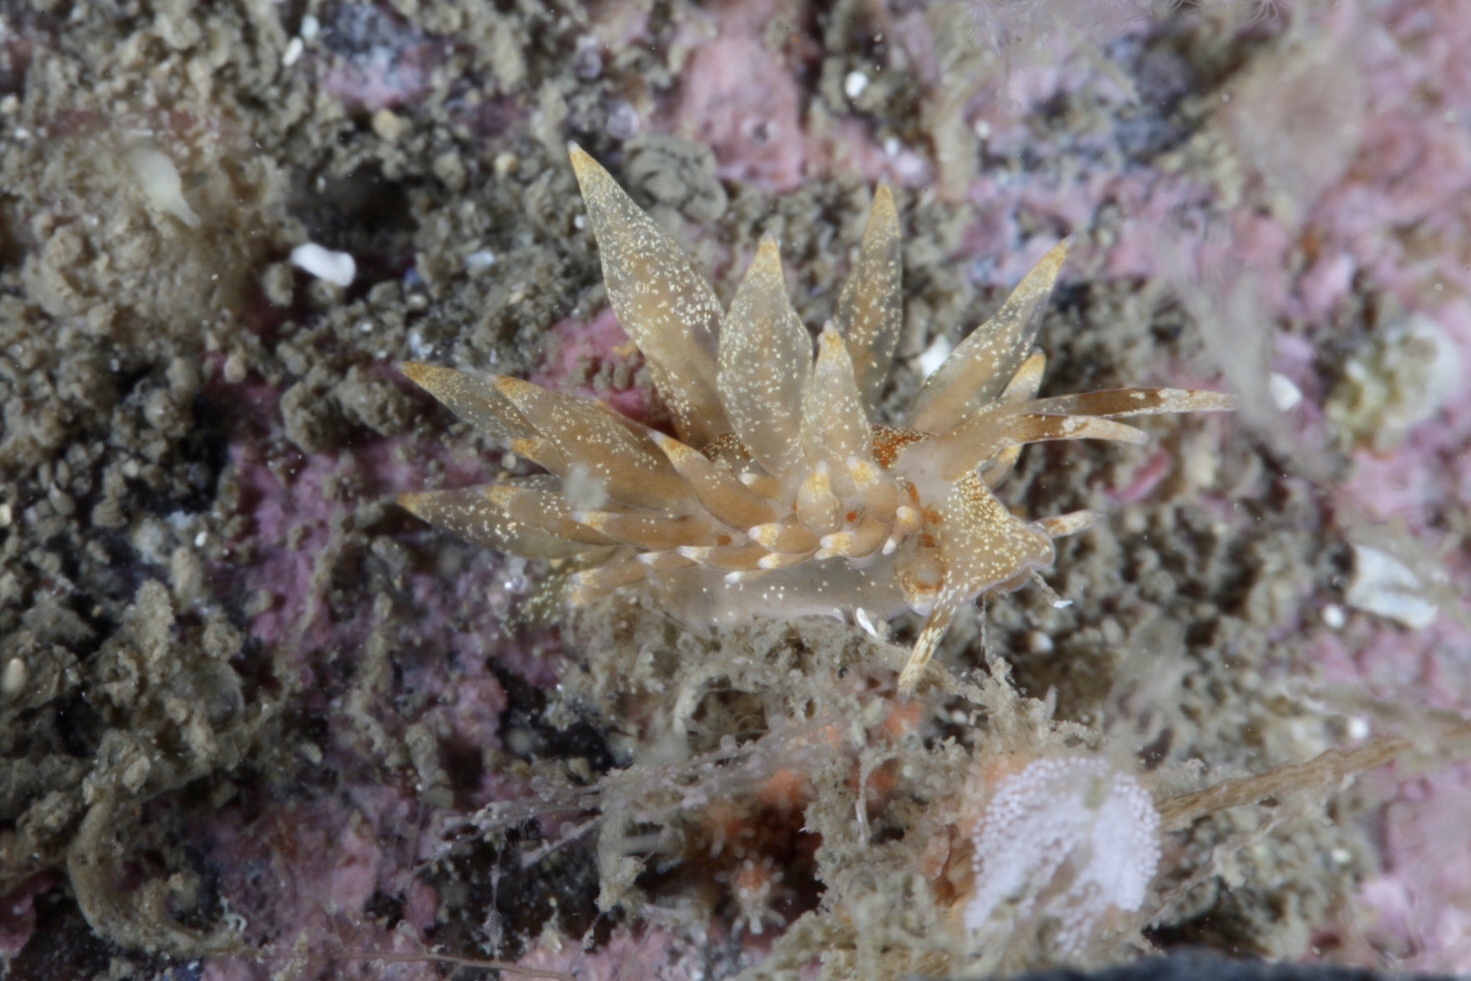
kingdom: Animalia
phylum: Mollusca
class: Gastropoda
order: Nudibranchia
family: Eubranchidae
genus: Amphorina
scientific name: Amphorina linensis
